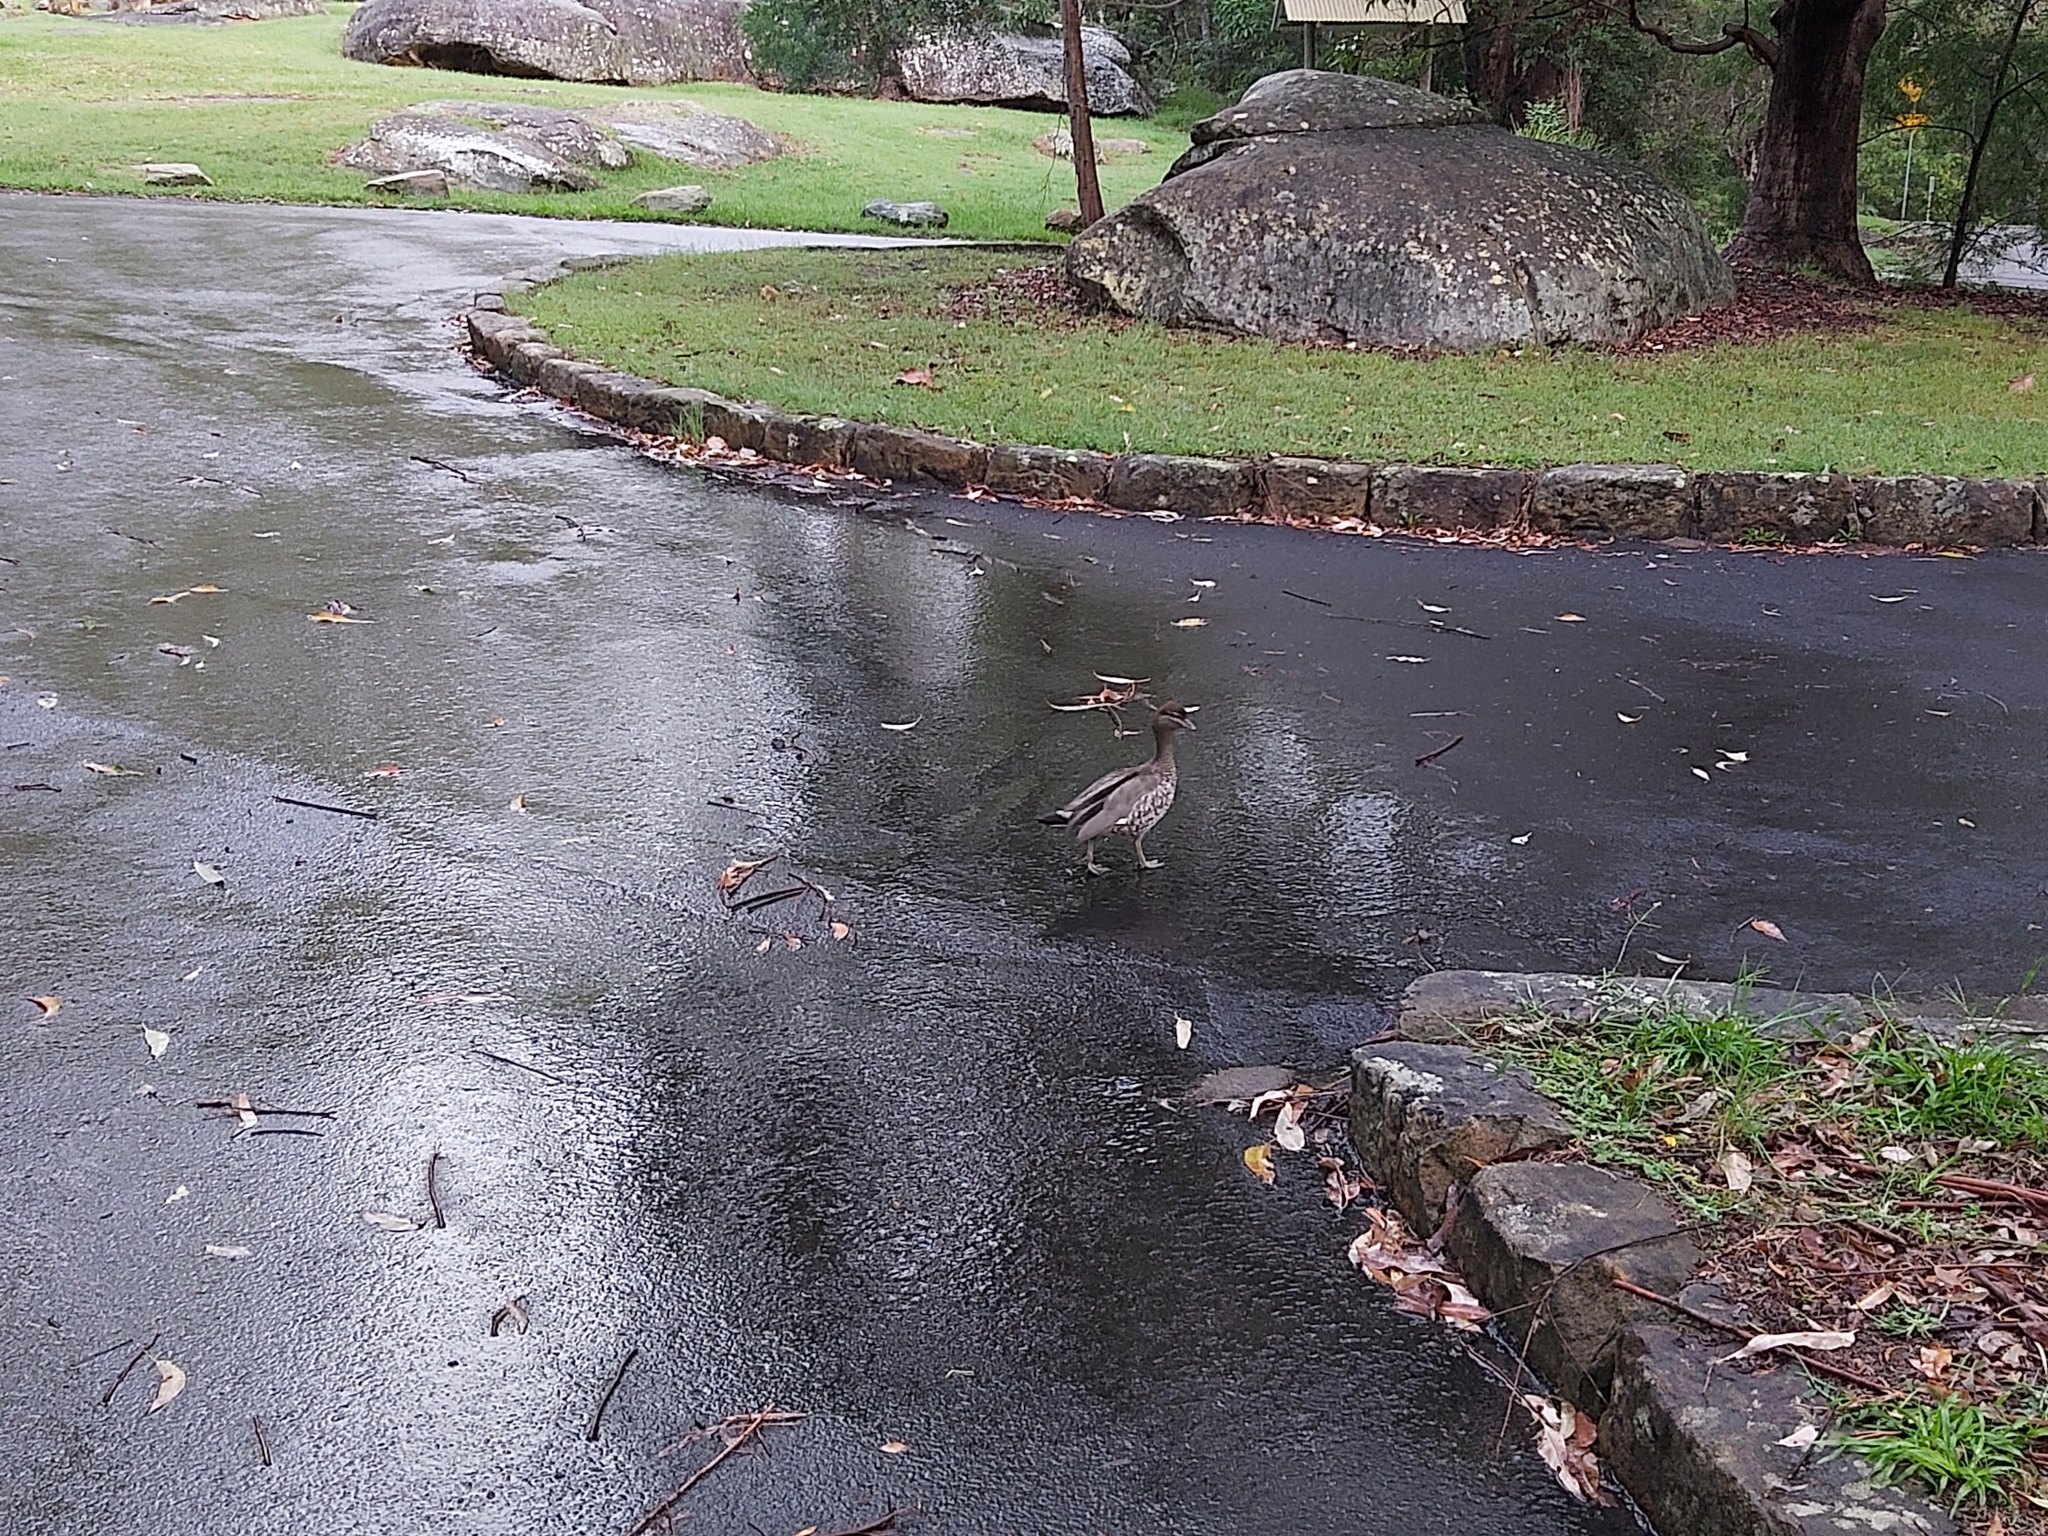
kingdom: Animalia
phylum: Chordata
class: Aves
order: Anseriformes
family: Anatidae
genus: Chenonetta
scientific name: Chenonetta jubata
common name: Maned duck
